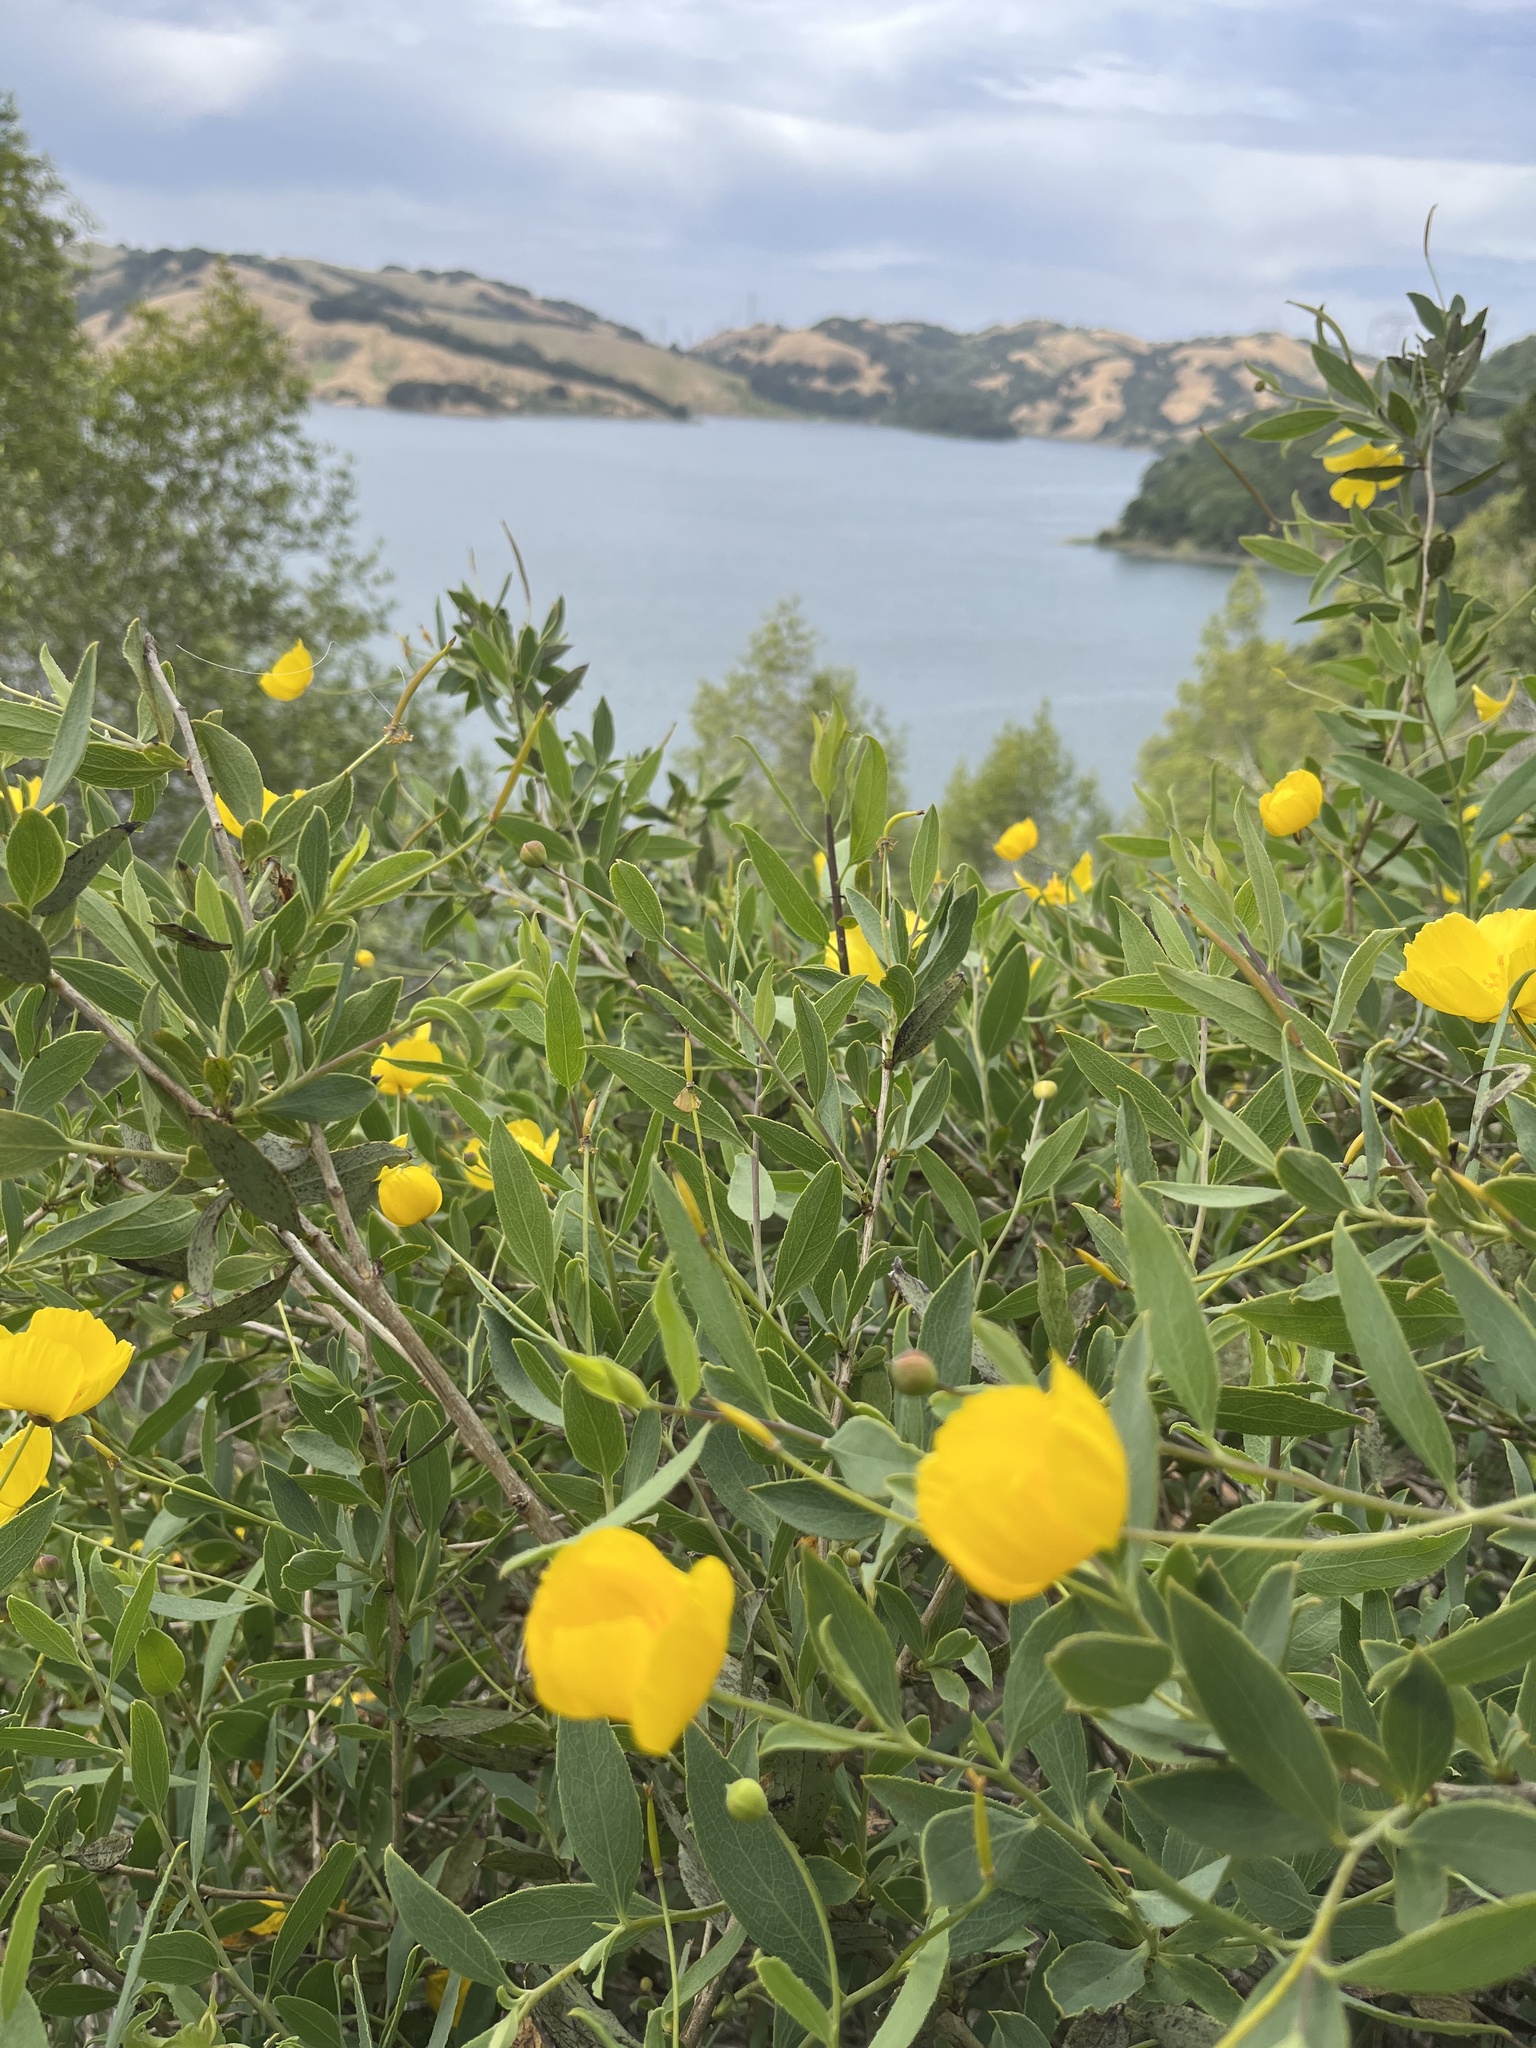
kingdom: Plantae
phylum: Tracheophyta
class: Magnoliopsida
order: Ranunculales
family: Papaveraceae
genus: Dendromecon
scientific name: Dendromecon rigida
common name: Tree poppy
